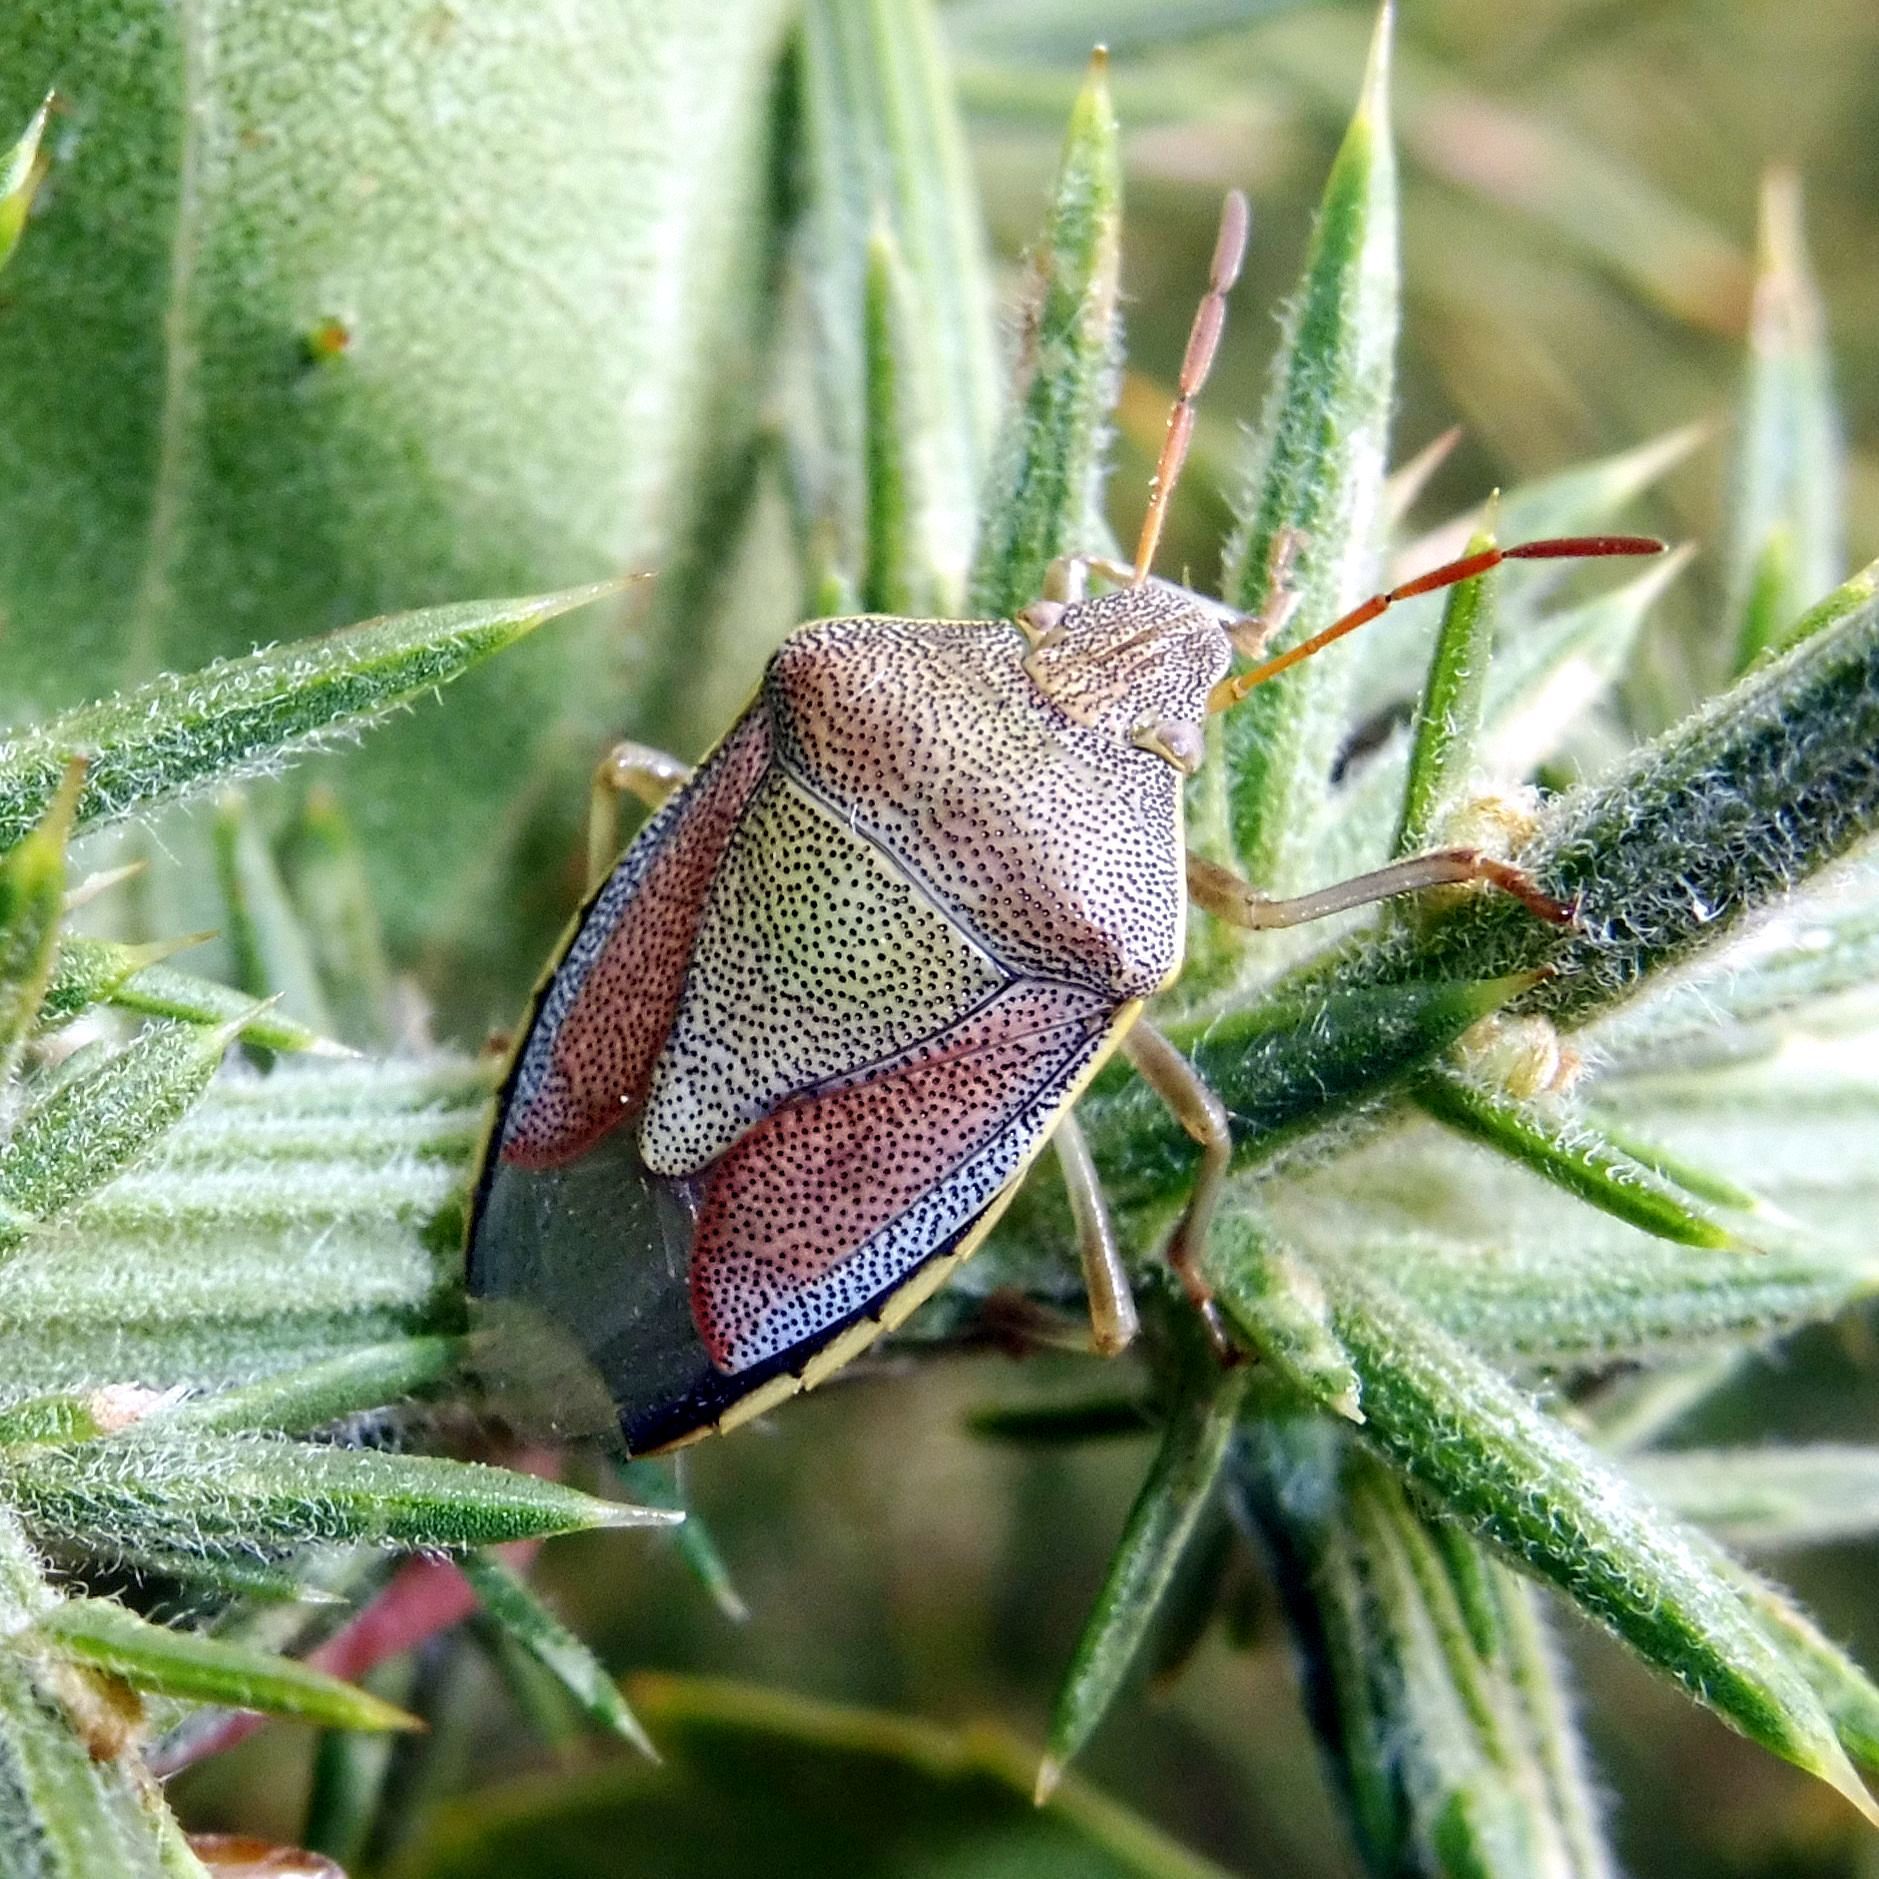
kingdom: Animalia
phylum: Arthropoda
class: Insecta
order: Hemiptera
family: Pentatomidae
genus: Piezodorus
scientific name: Piezodorus lituratus
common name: Stink bug
